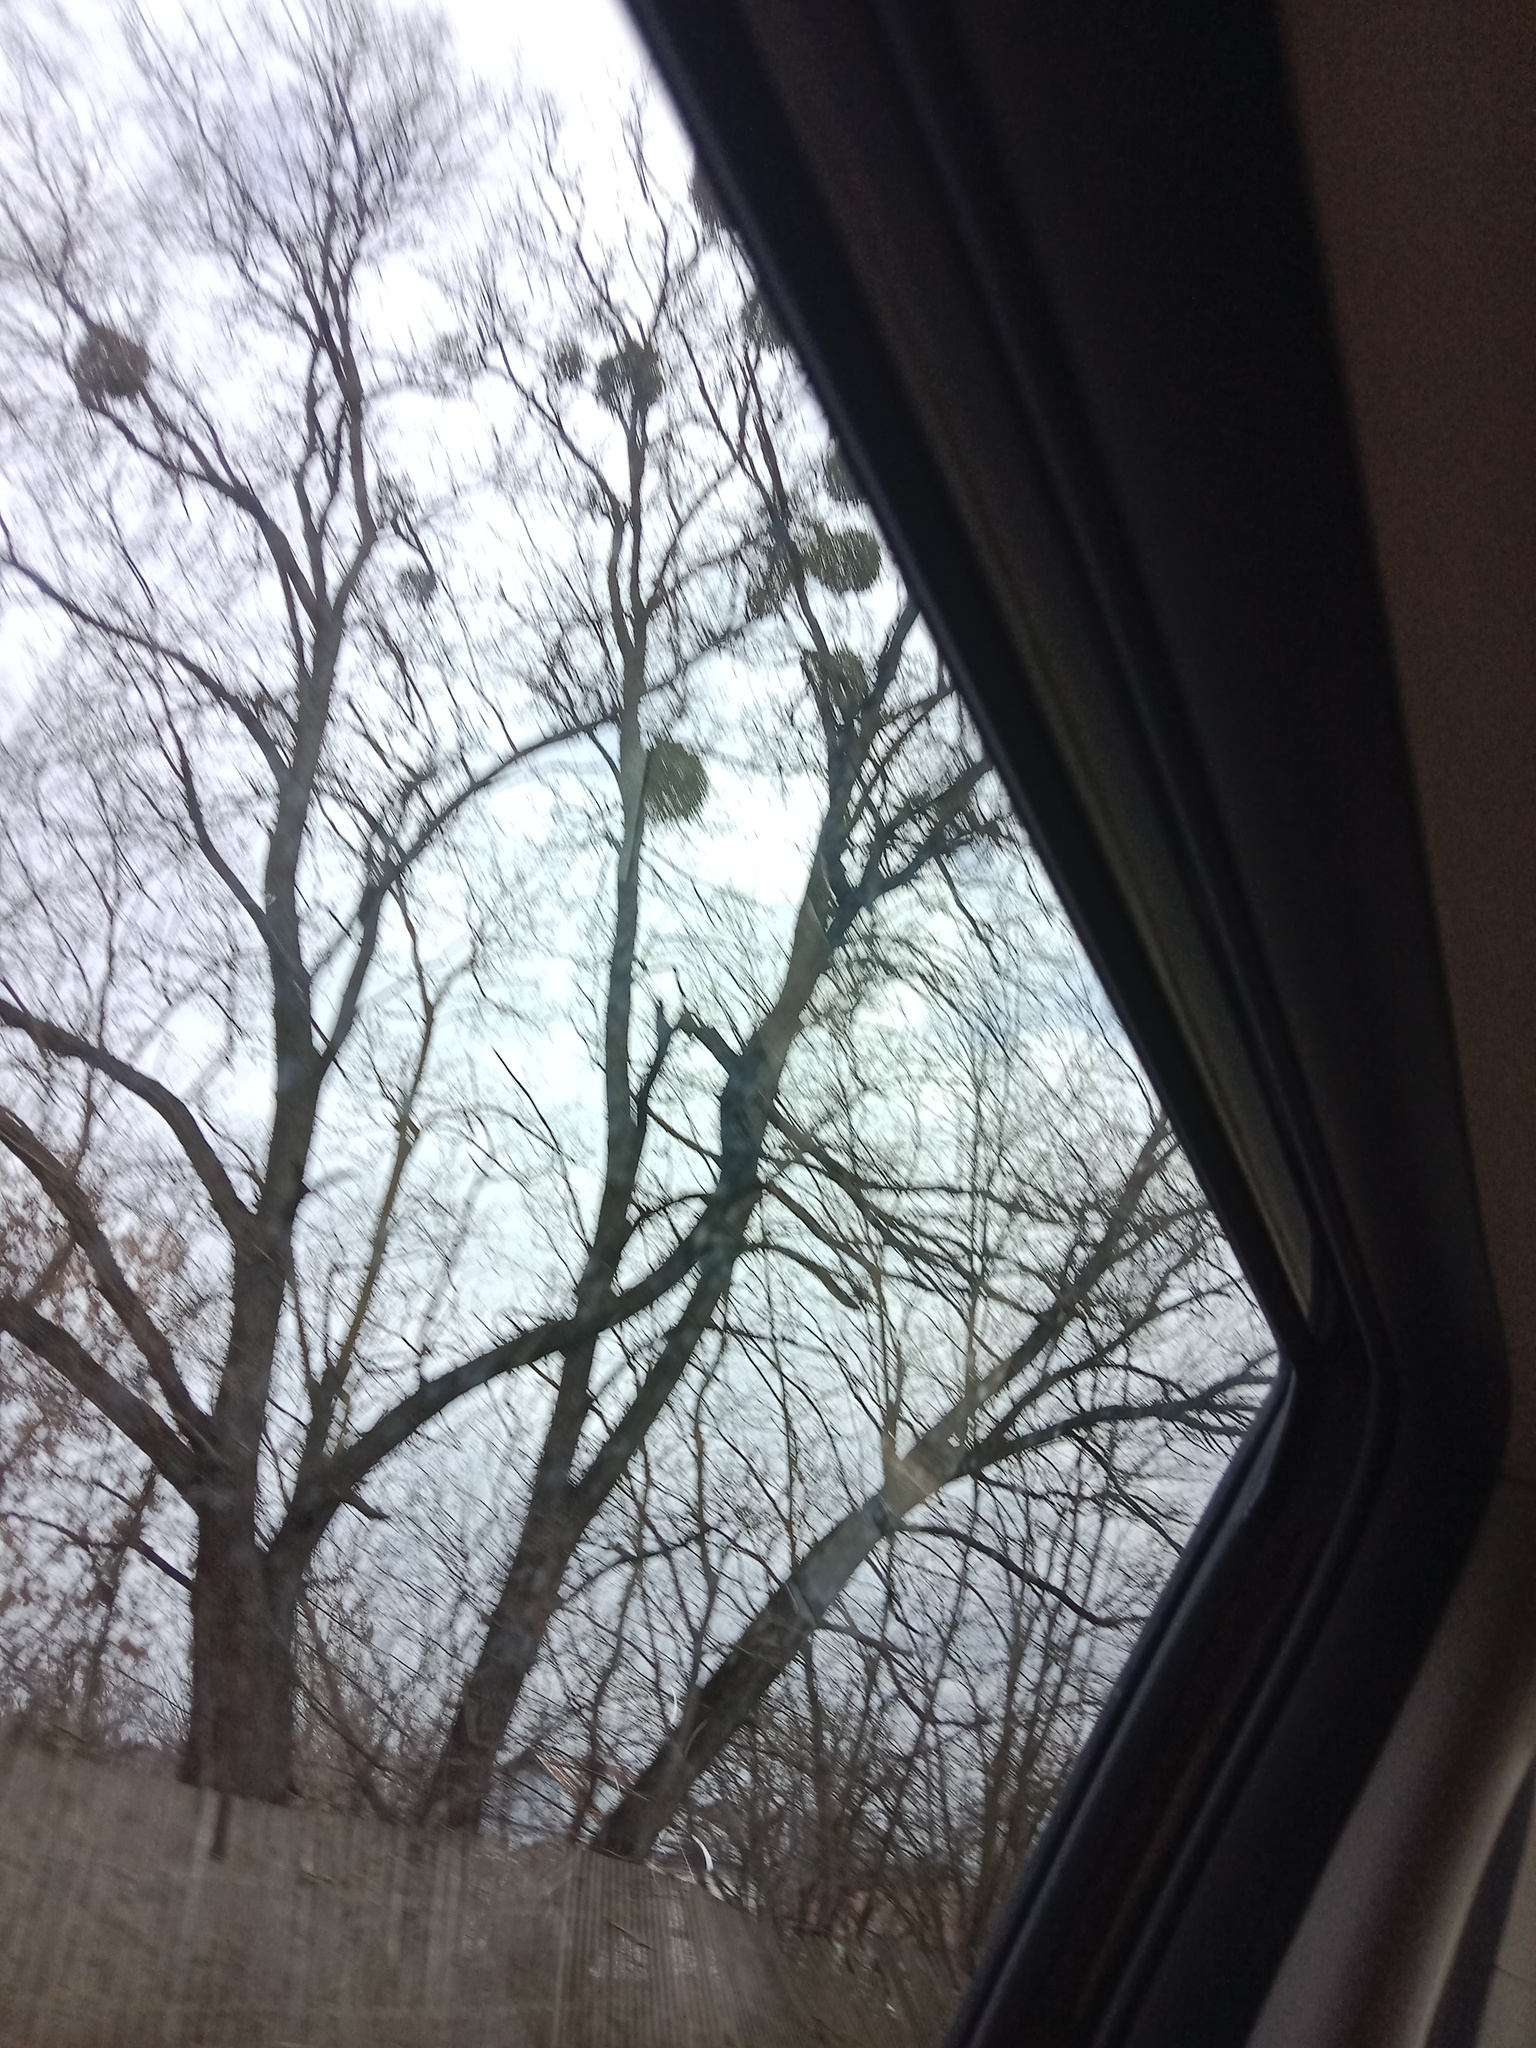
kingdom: Plantae
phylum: Tracheophyta
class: Magnoliopsida
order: Santalales
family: Viscaceae
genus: Viscum
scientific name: Viscum album
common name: Mistletoe
